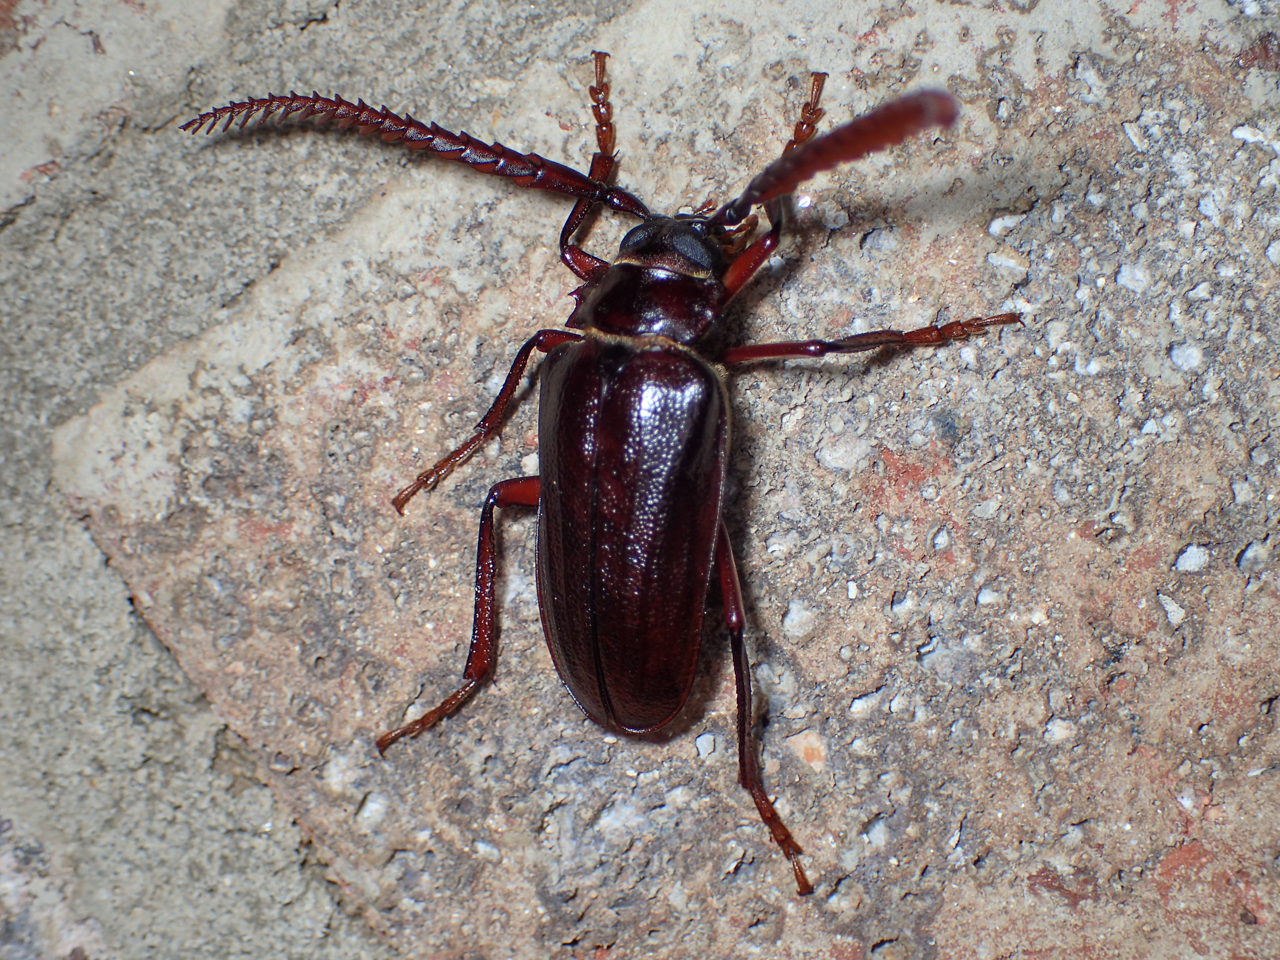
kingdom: Animalia
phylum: Arthropoda
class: Insecta
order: Coleoptera
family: Cerambycidae
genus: Prionus
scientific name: Prionus imbricornis
